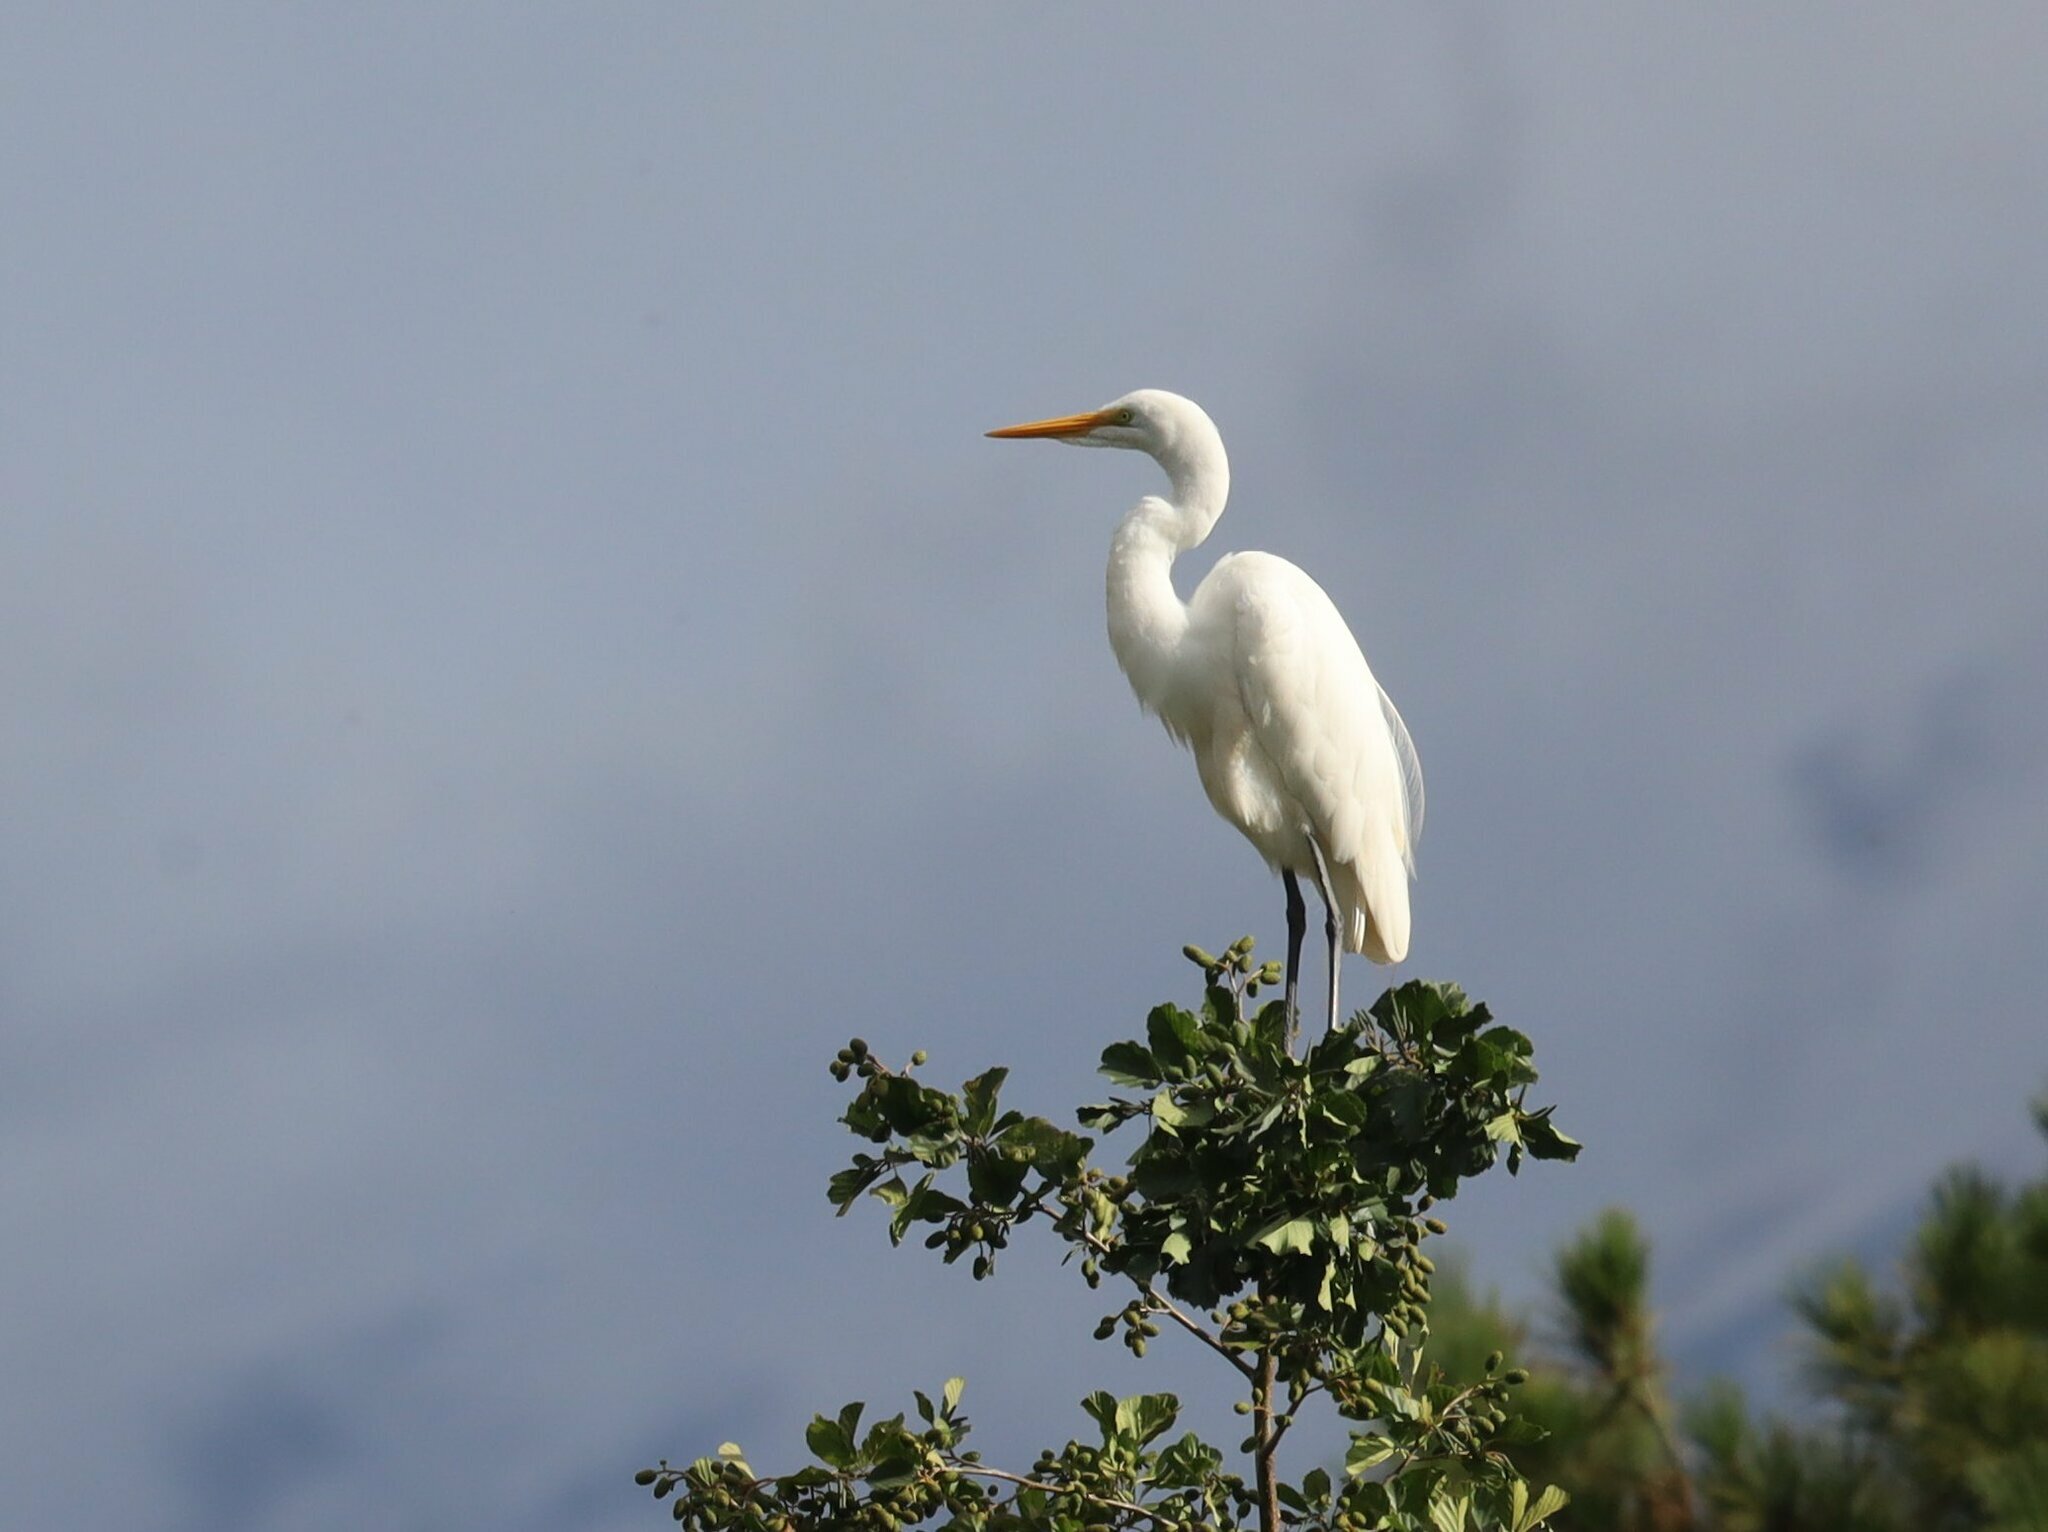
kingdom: Animalia
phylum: Chordata
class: Aves
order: Pelecaniformes
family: Ardeidae
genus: Ardea
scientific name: Ardea alba
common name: Great egret
